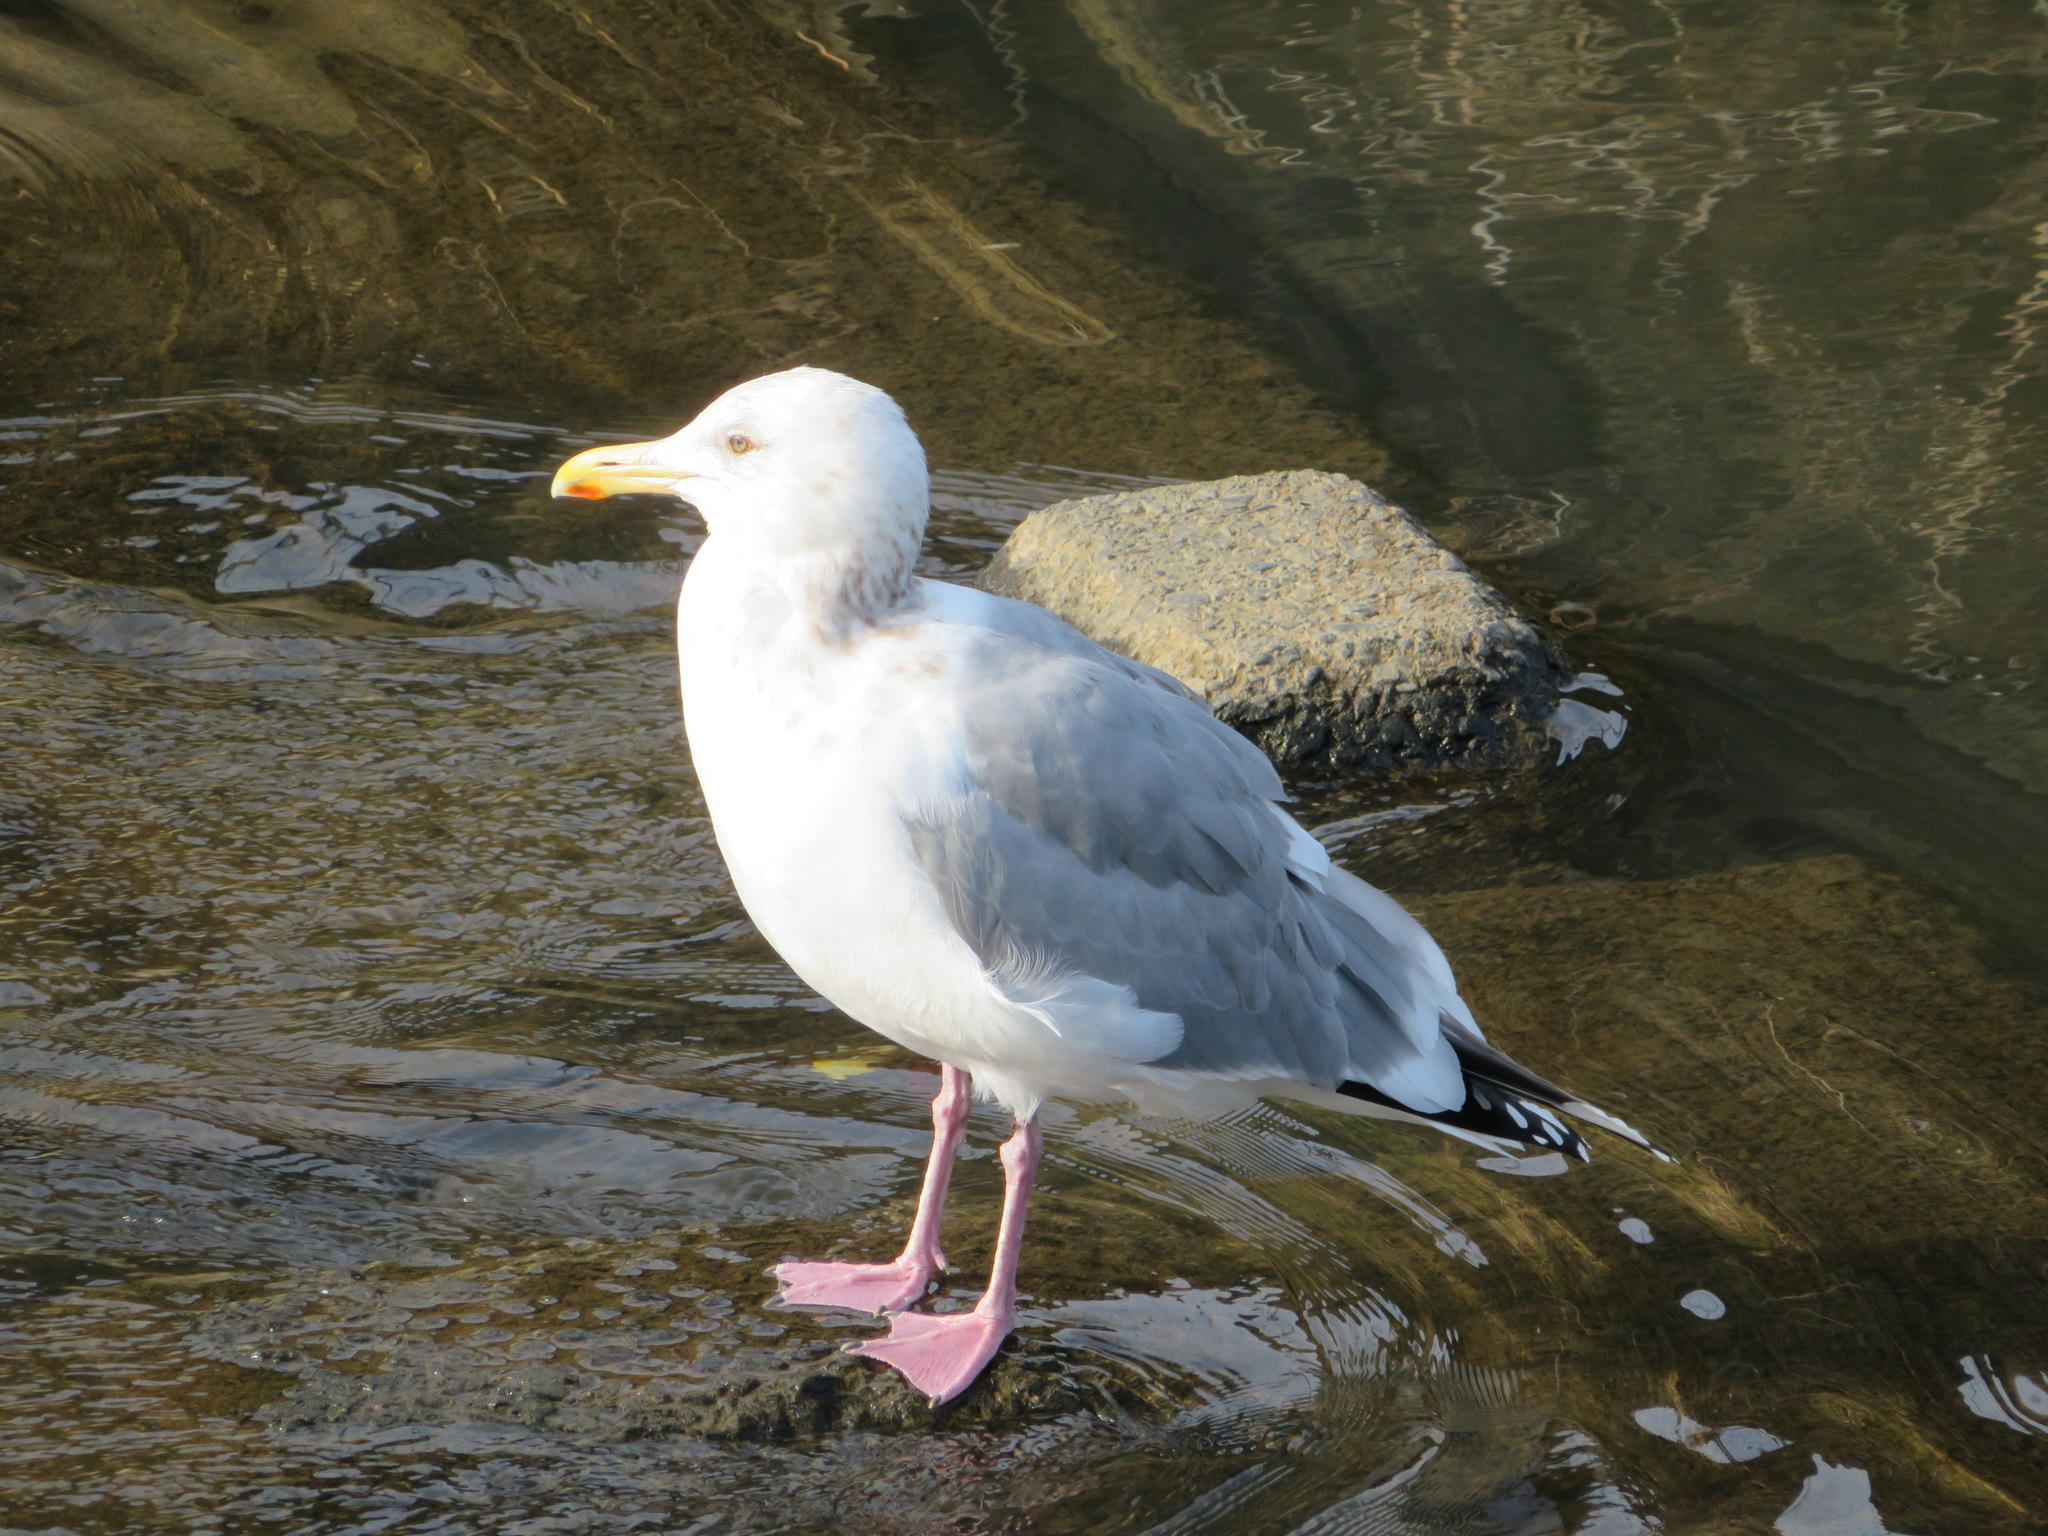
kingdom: Animalia
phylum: Chordata
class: Aves
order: Charadriiformes
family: Laridae
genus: Larus
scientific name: Larus vegae
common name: Vega gull
